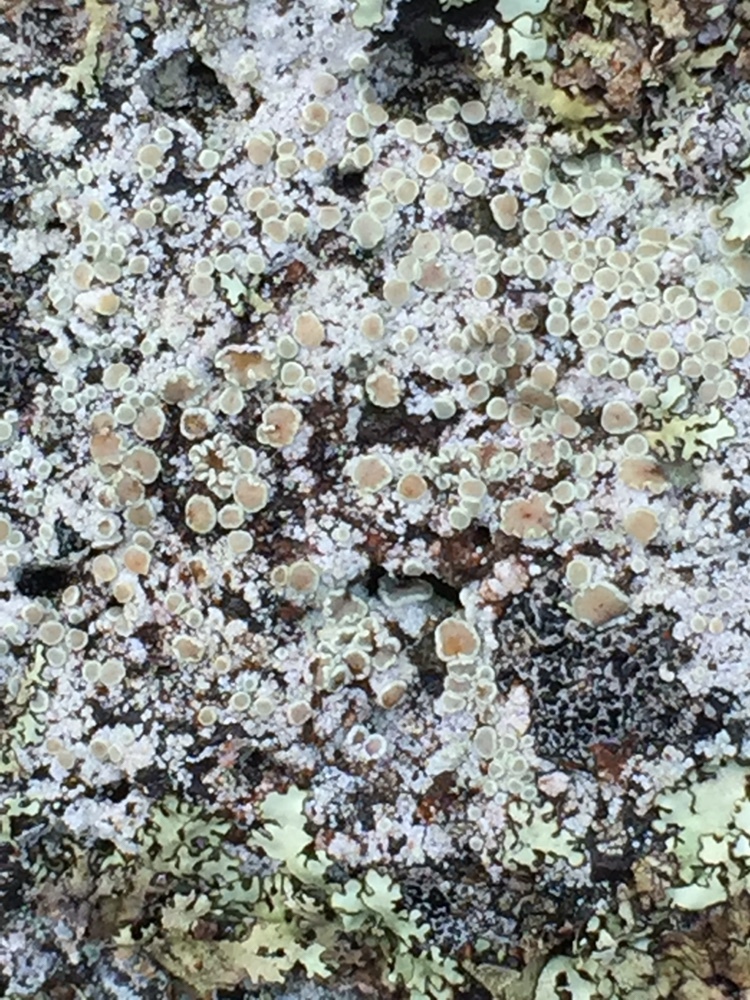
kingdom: Fungi
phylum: Ascomycota
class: Lecanoromycetes
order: Lecanorales
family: Lecanoraceae
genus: Polyozosia
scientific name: Polyozosia semipallida
